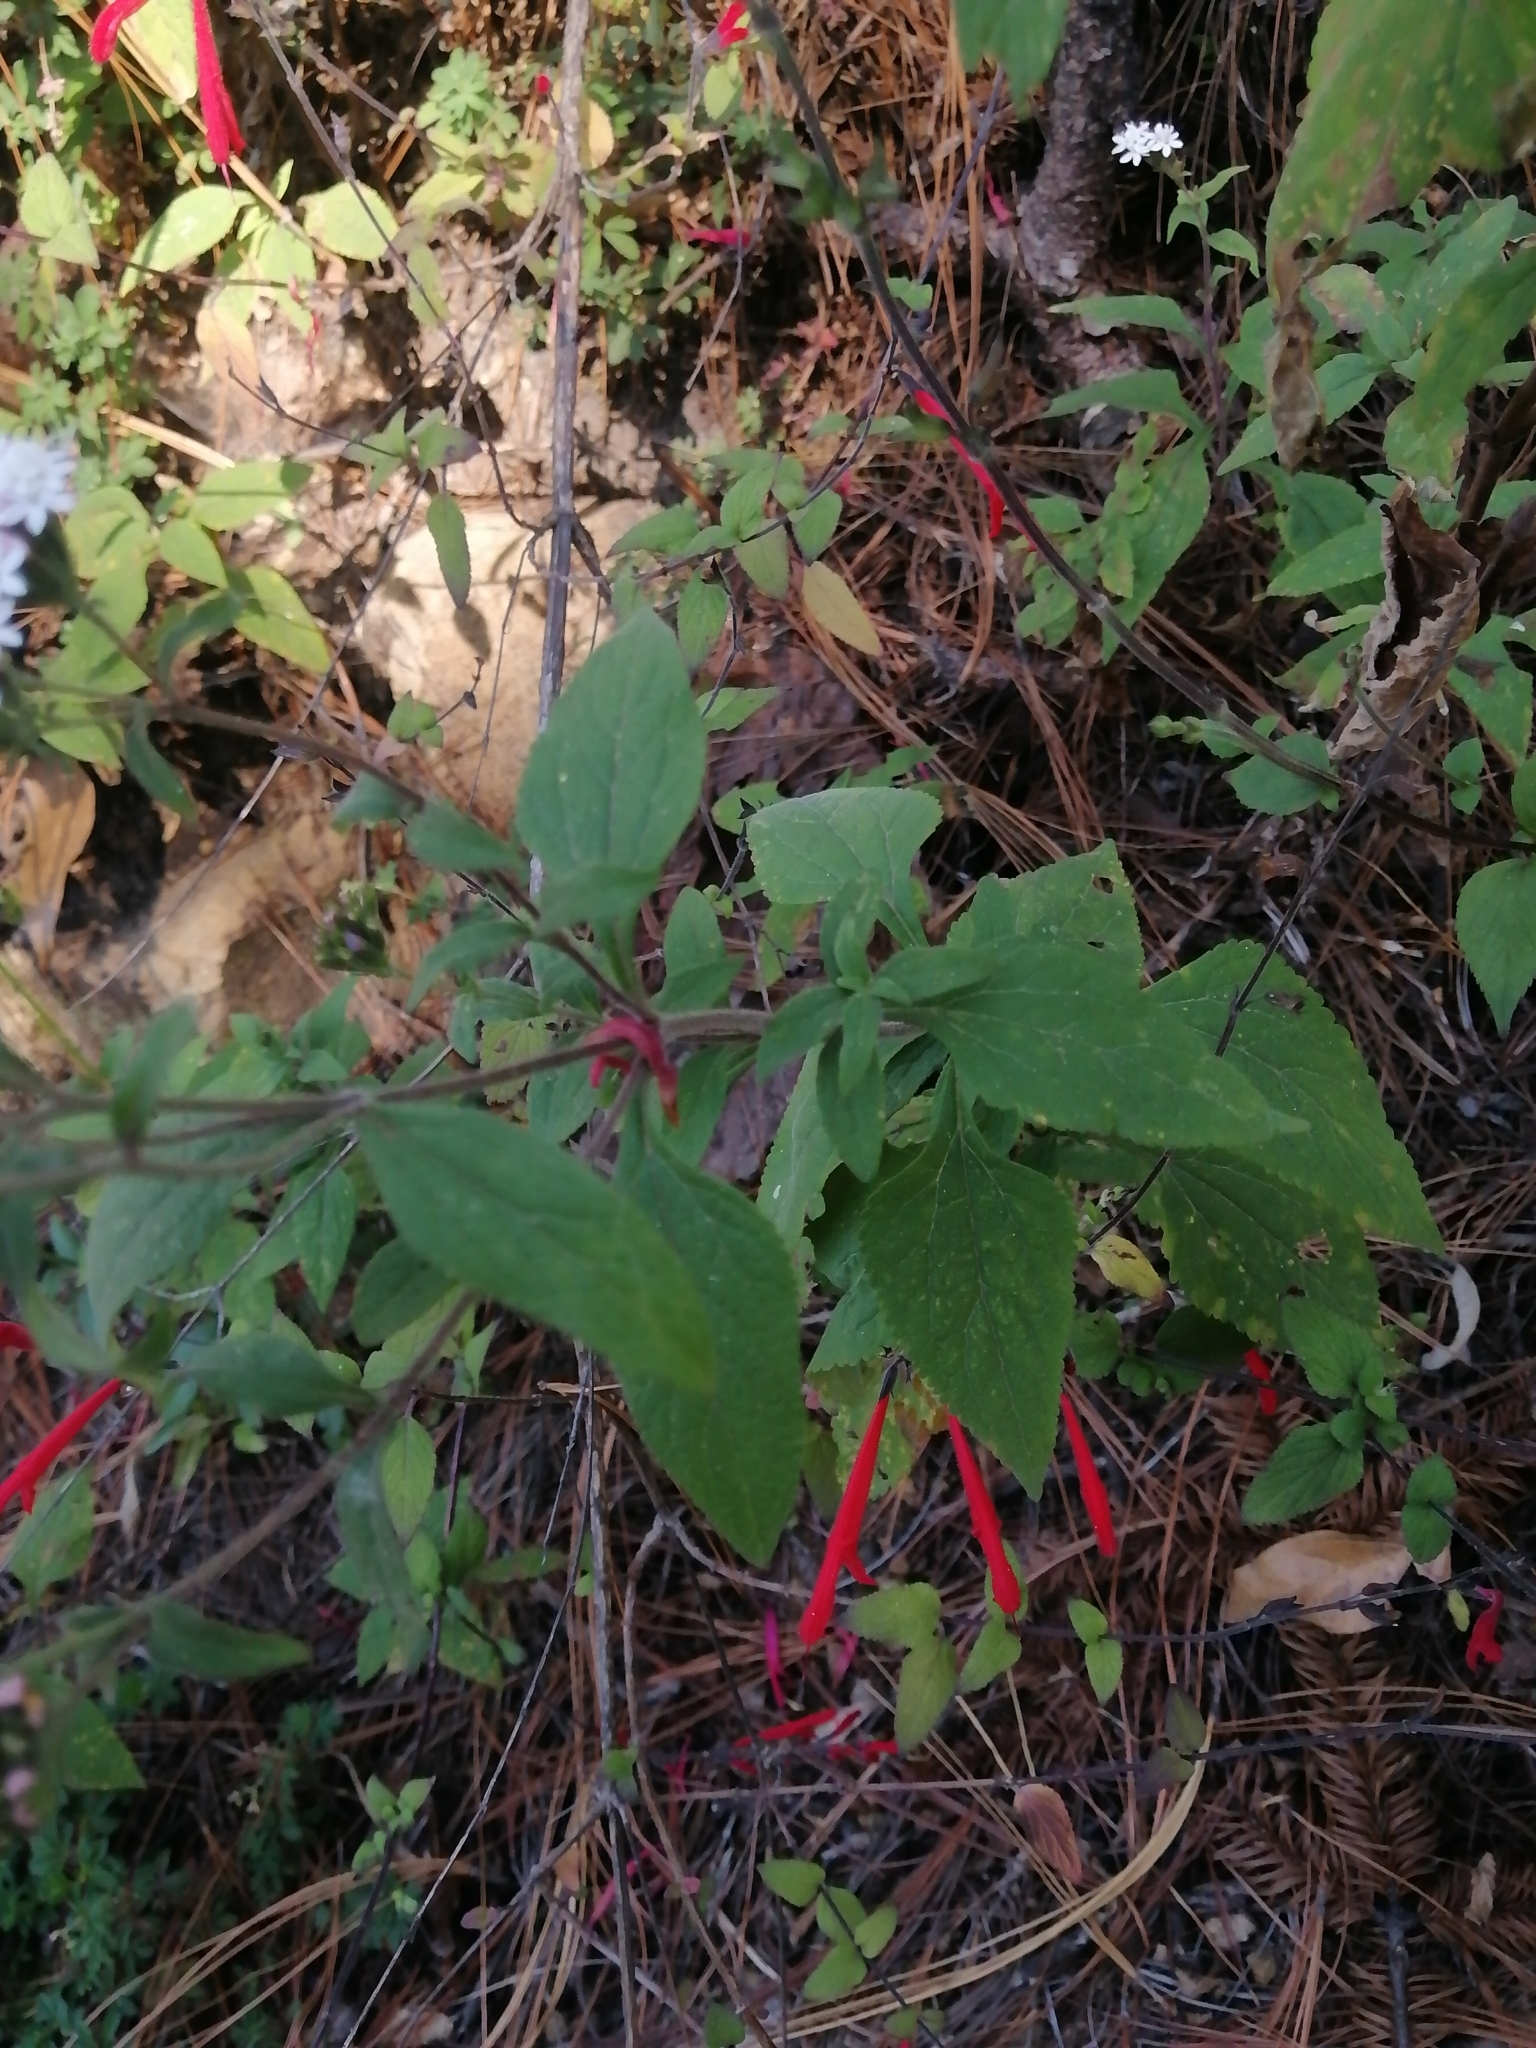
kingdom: Plantae
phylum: Tracheophyta
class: Magnoliopsida
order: Asterales
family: Asteraceae
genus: Stevia
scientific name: Stevia ovata
